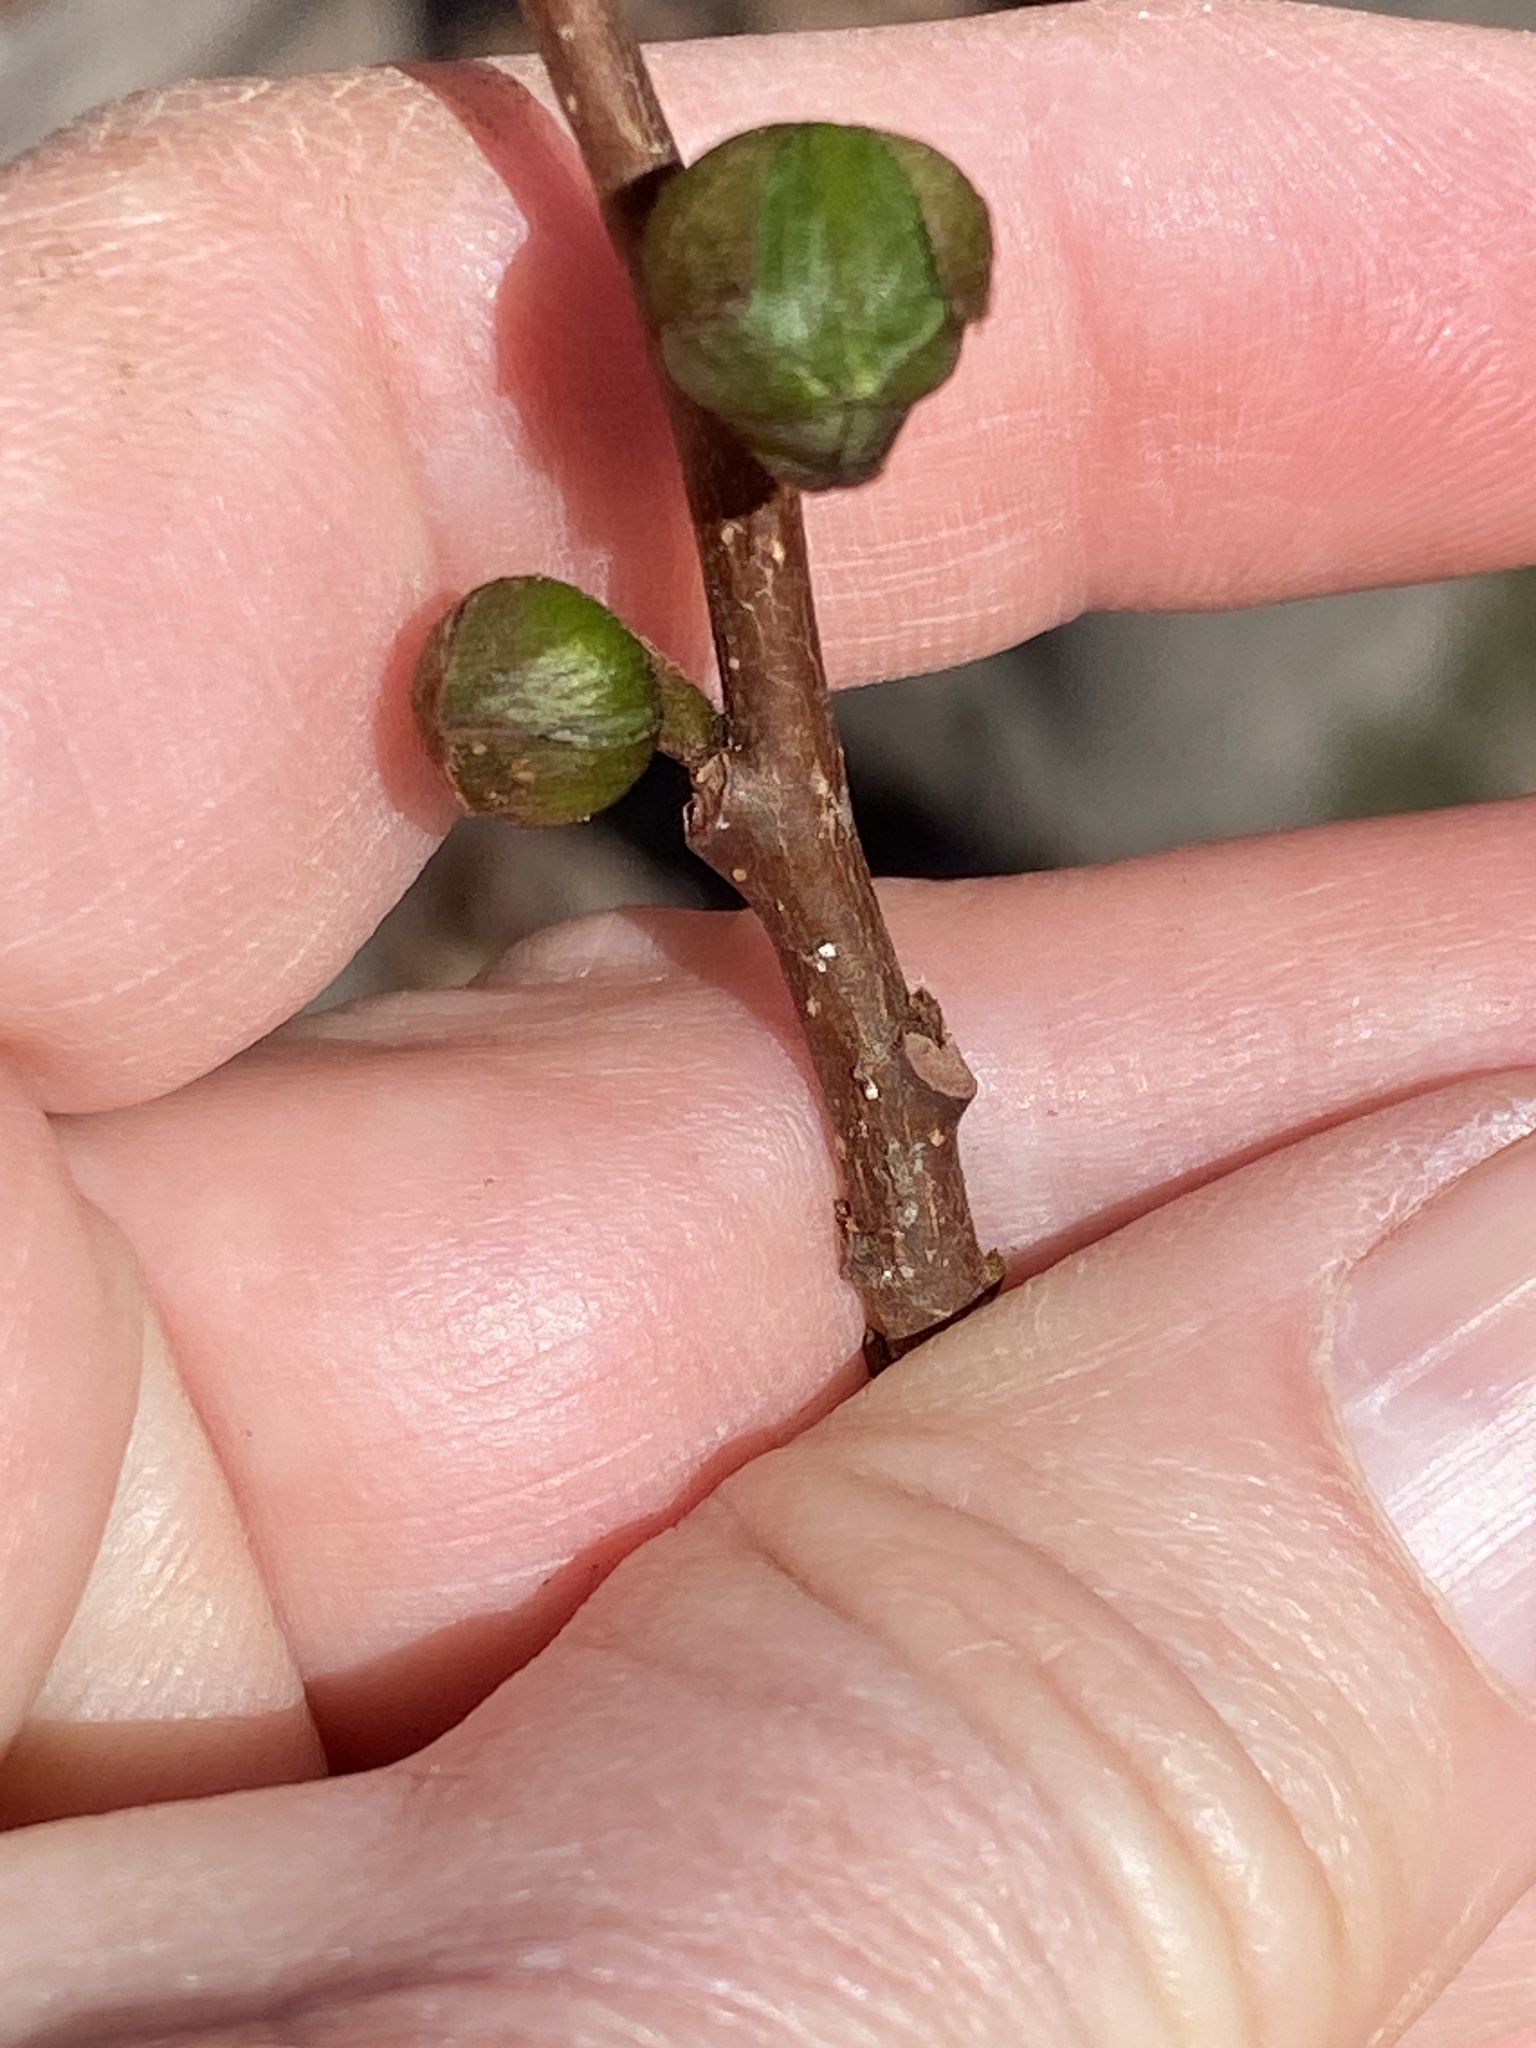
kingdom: Plantae
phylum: Tracheophyta
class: Magnoliopsida
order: Magnoliales
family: Annonaceae
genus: Asimina
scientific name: Asimina parviflora
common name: Dwarf pawpaw
